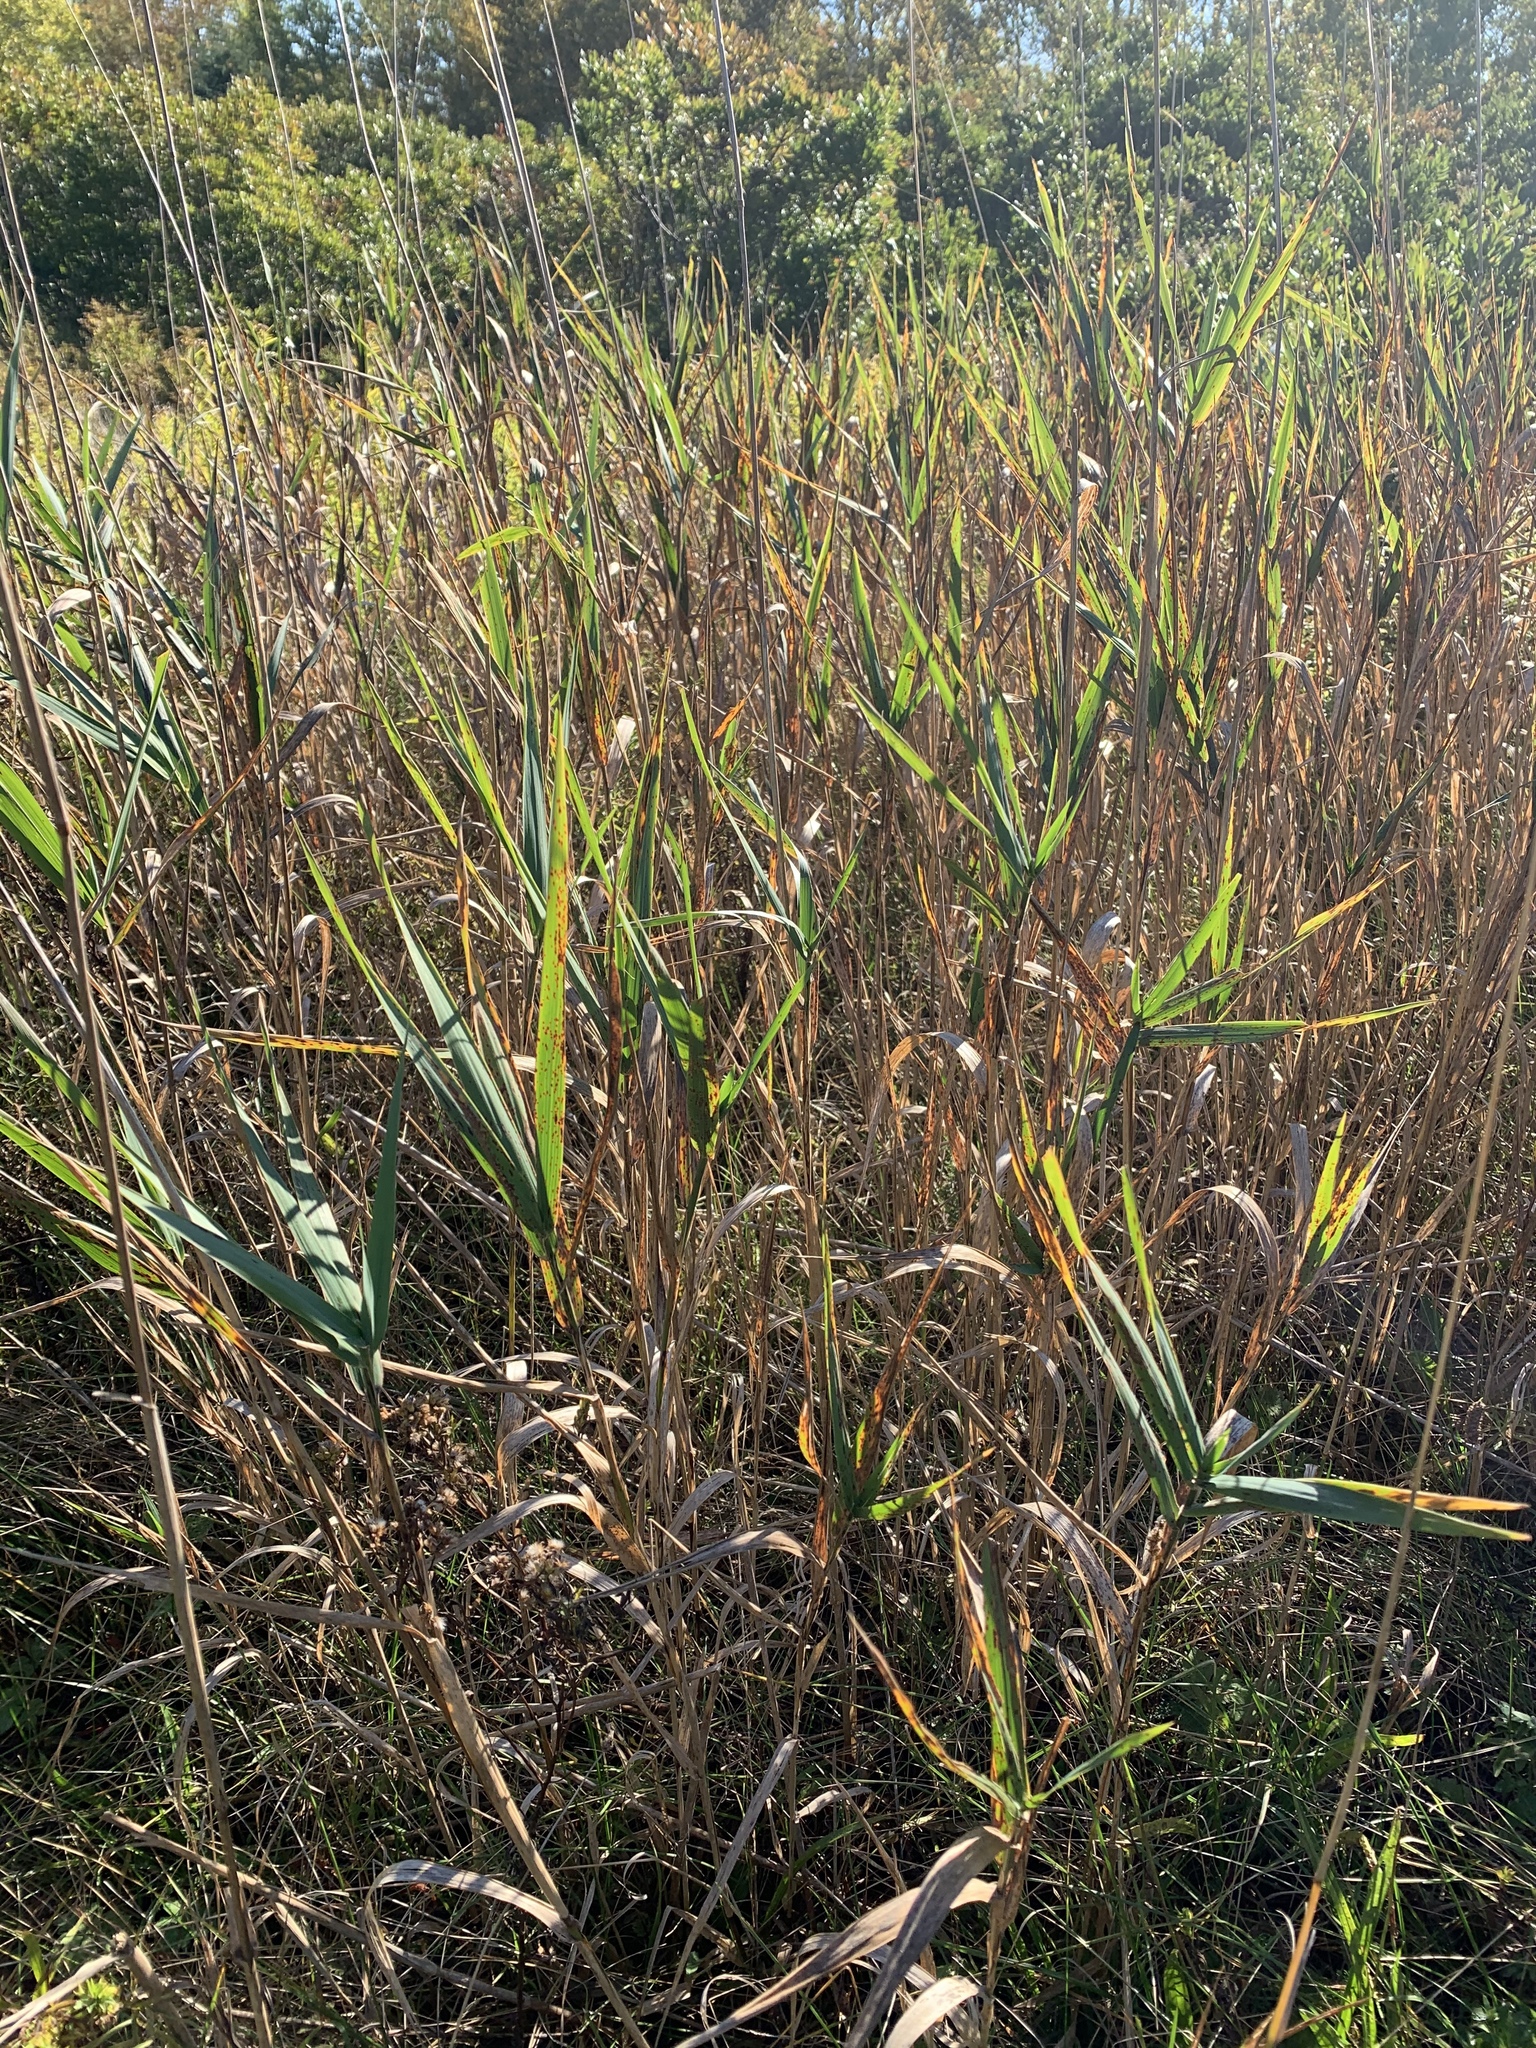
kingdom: Plantae
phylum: Tracheophyta
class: Liliopsida
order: Poales
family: Poaceae
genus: Phalaris
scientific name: Phalaris arundinacea
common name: Reed canary-grass
